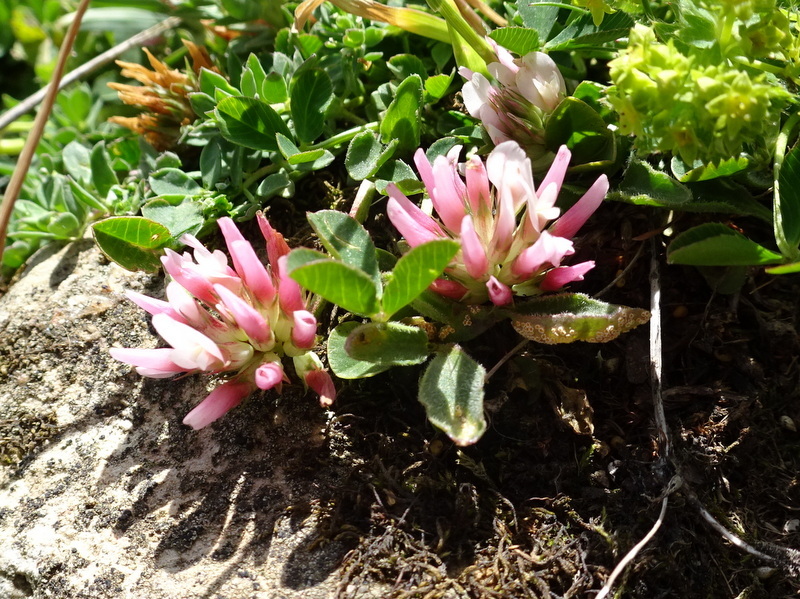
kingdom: Plantae
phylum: Tracheophyta
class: Magnoliopsida
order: Fabales
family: Fabaceae
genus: Trifolium
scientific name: Trifolium thalii
